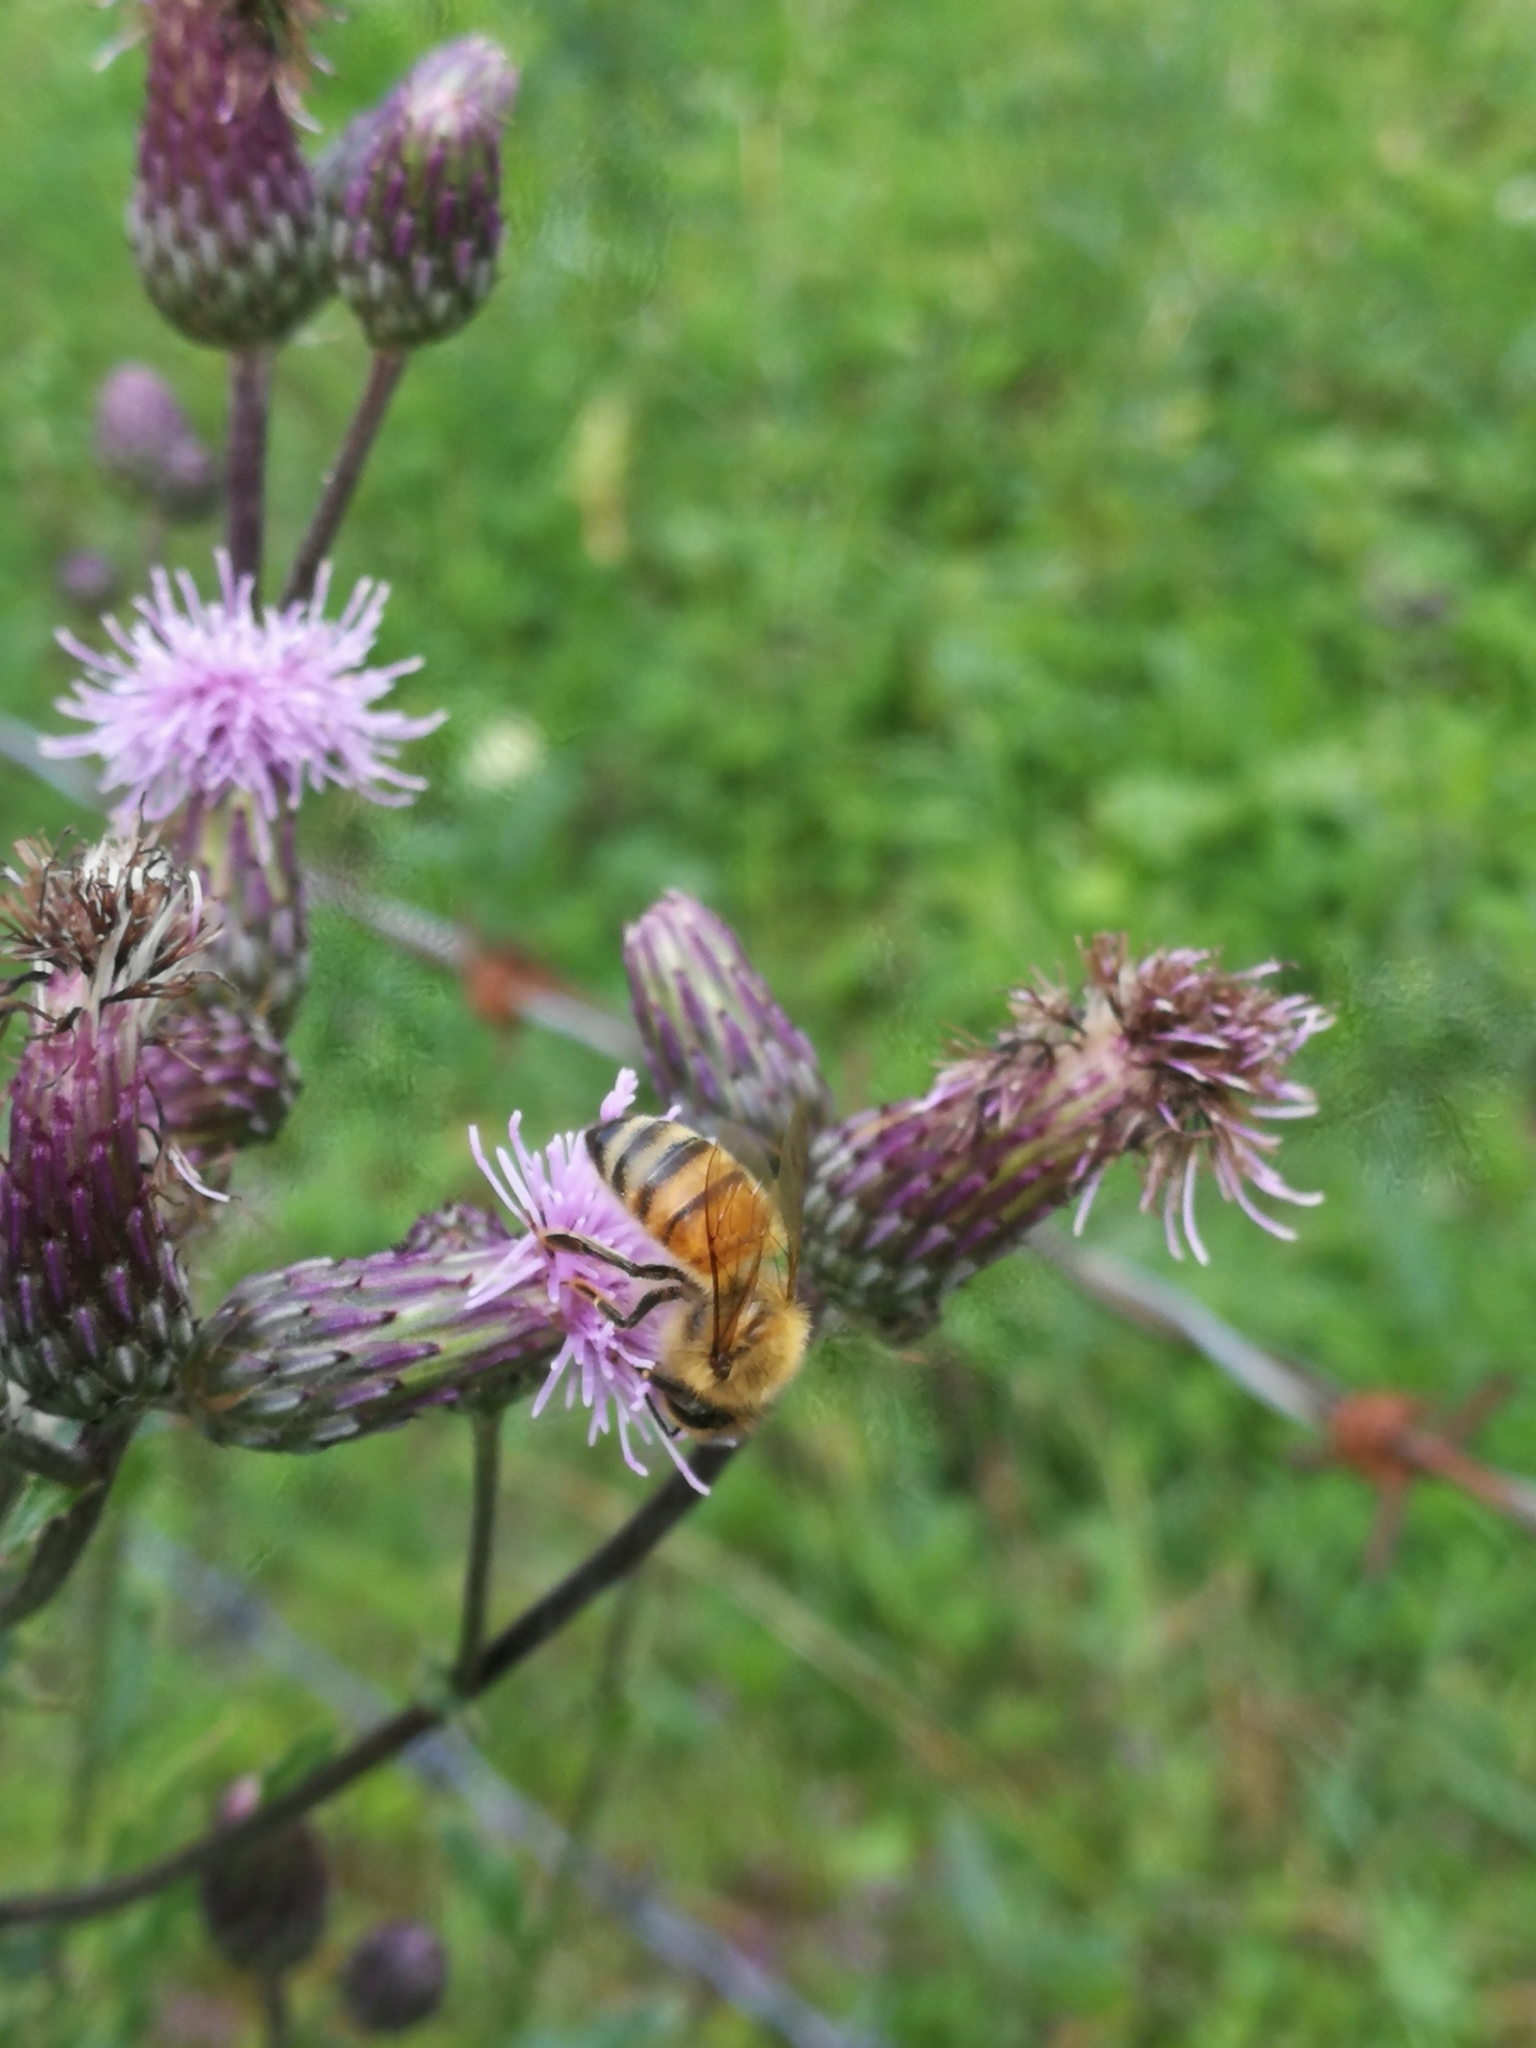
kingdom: Animalia
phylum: Arthropoda
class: Insecta
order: Hymenoptera
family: Apidae
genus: Apis
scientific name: Apis mellifera
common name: Honey bee
